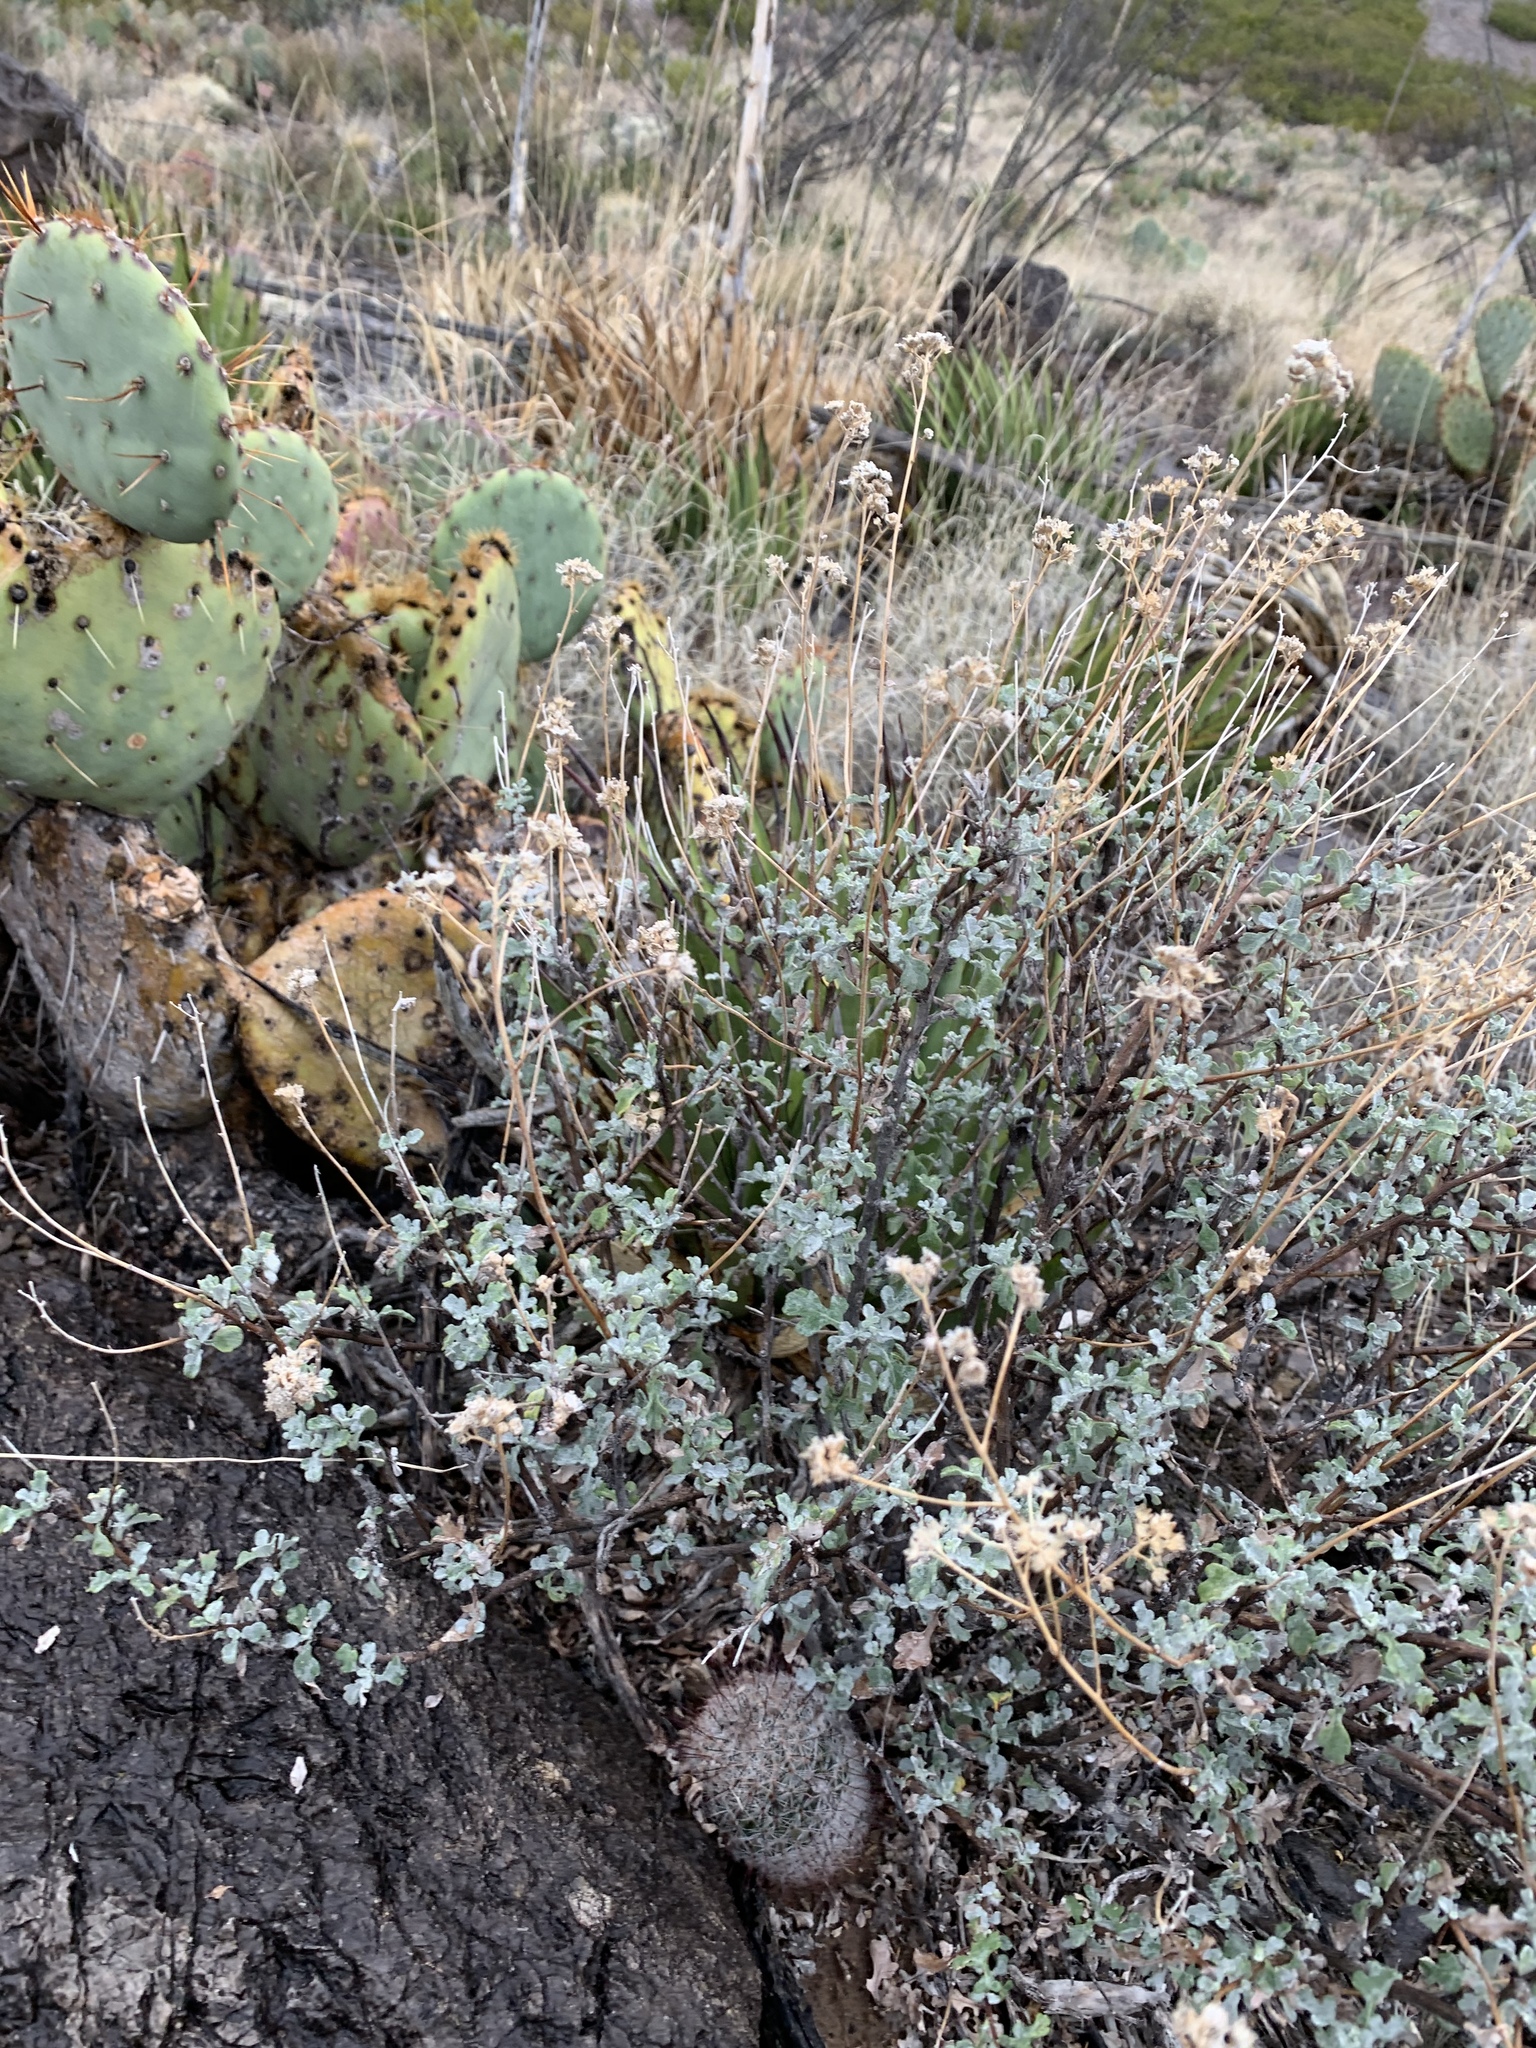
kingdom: Plantae
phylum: Tracheophyta
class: Magnoliopsida
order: Asterales
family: Asteraceae
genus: Parthenium
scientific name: Parthenium incanum
